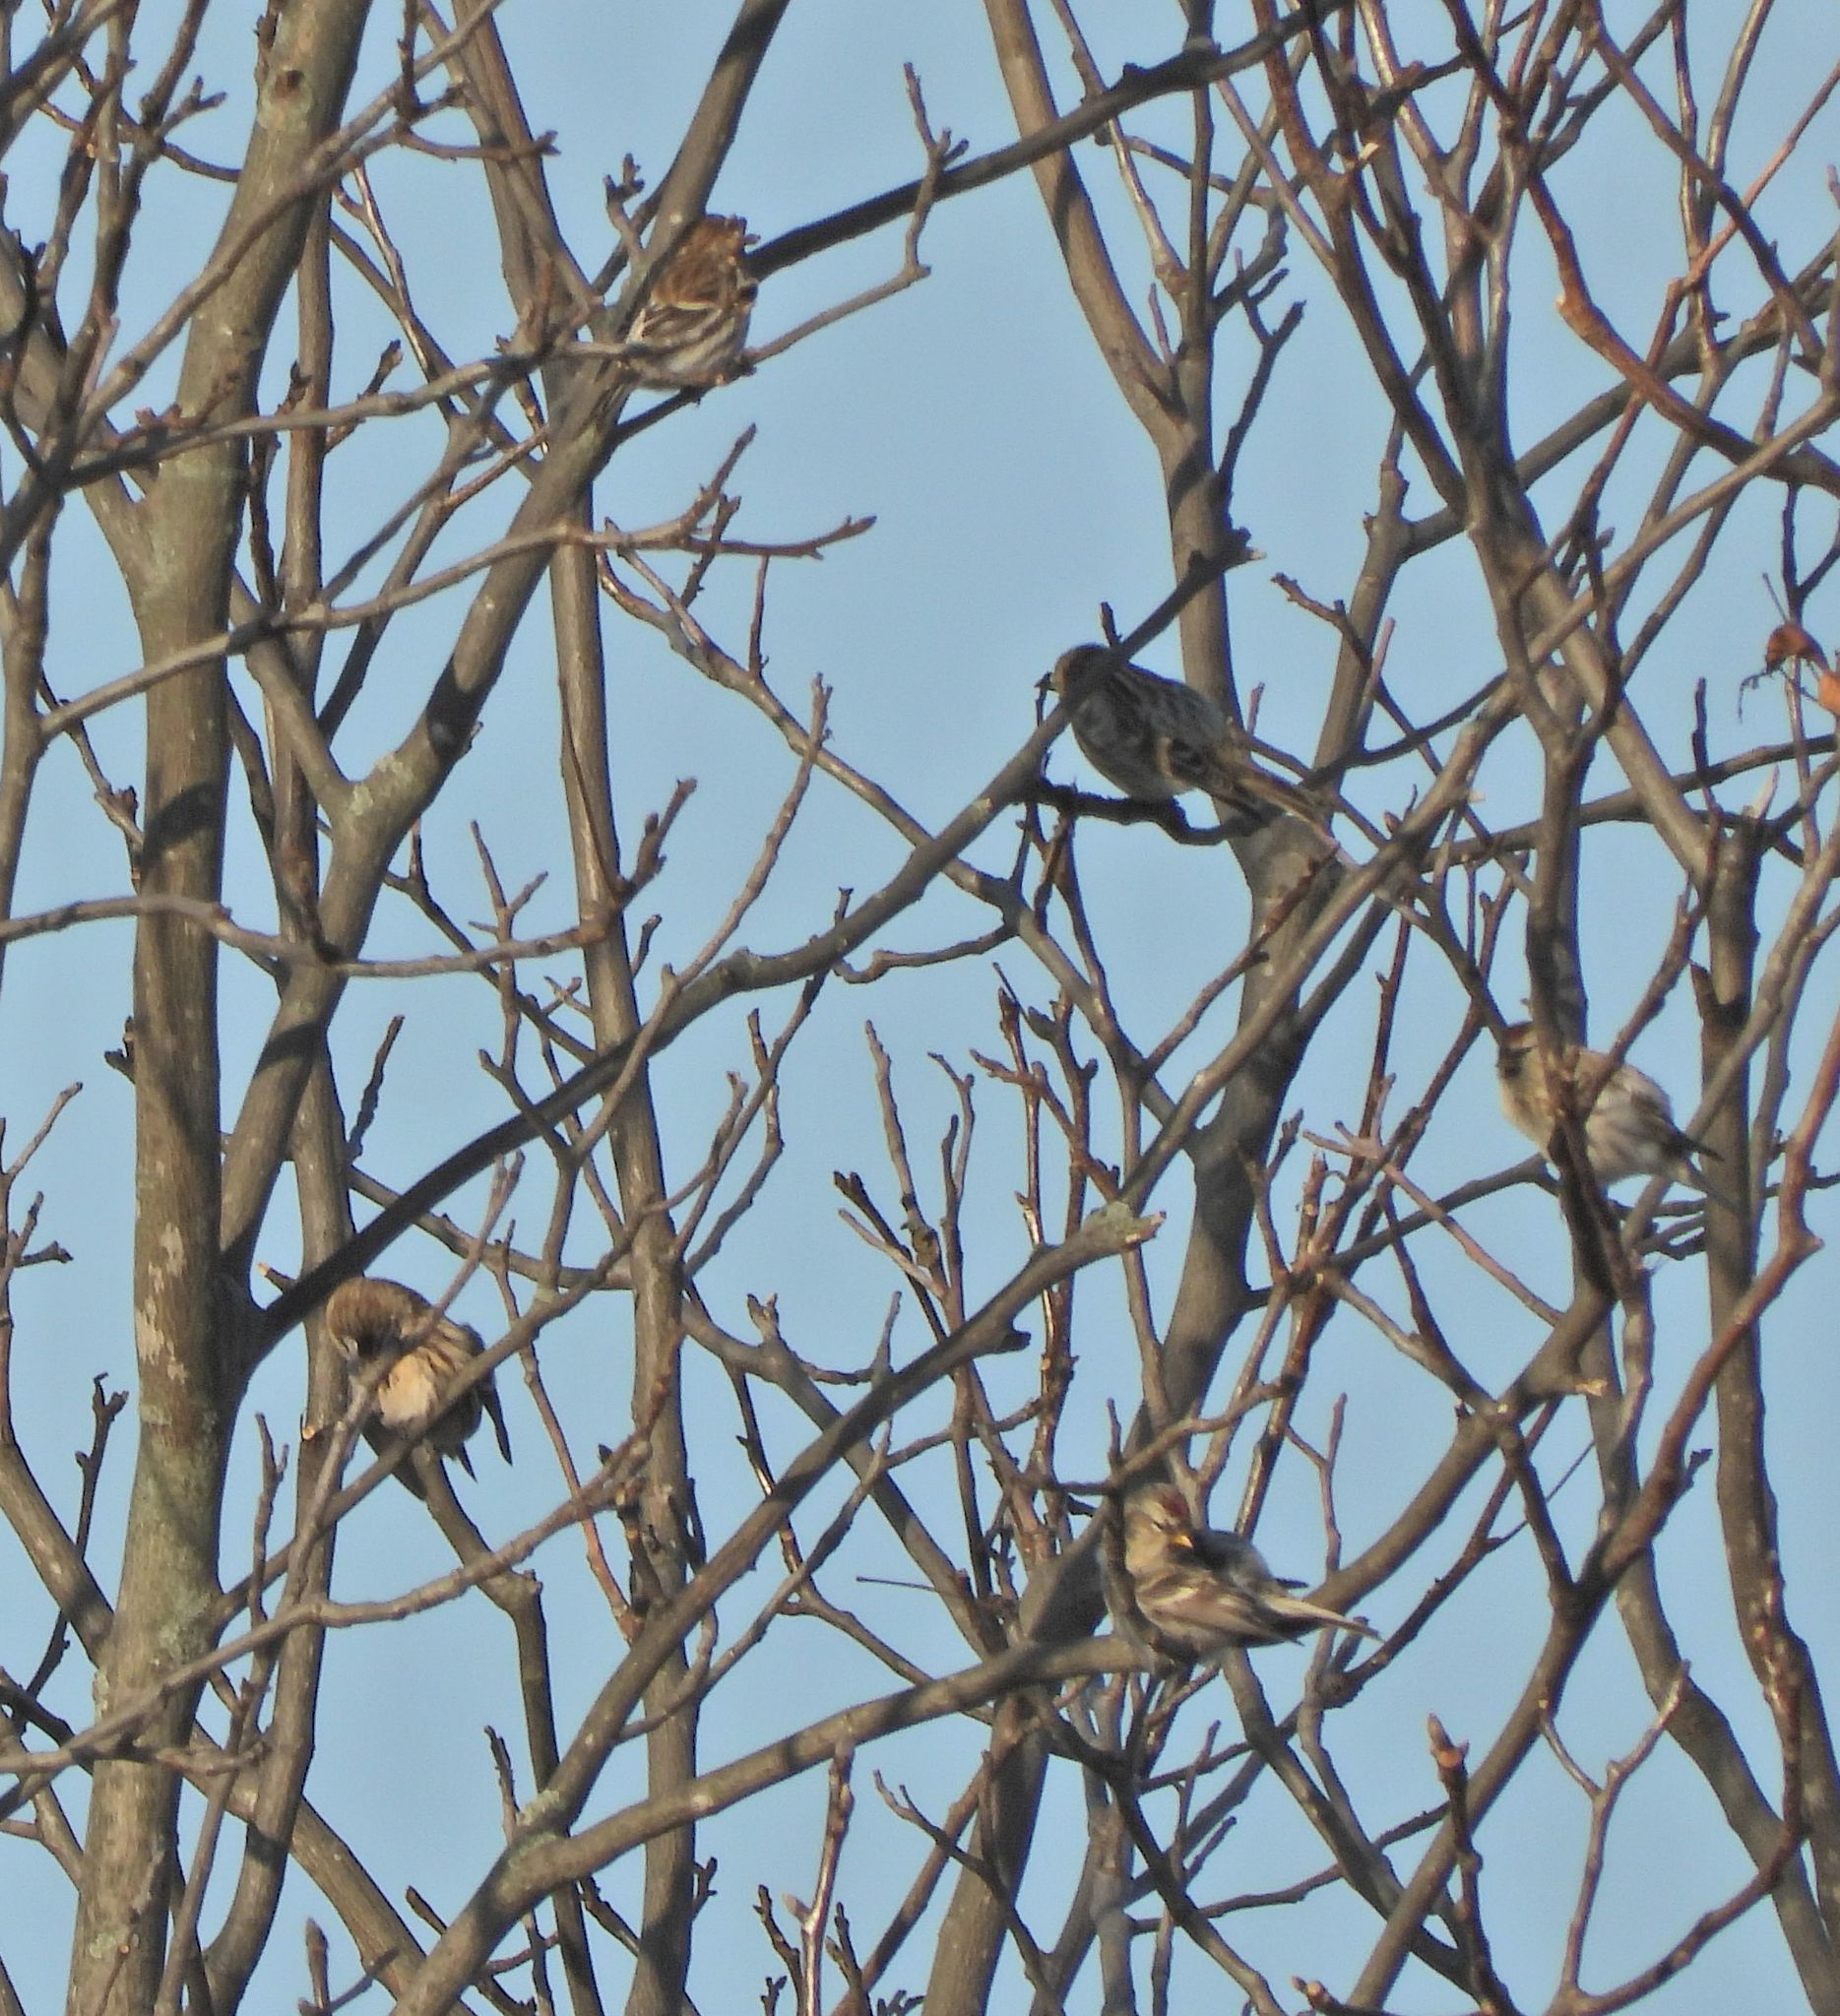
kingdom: Animalia
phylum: Chordata
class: Aves
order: Passeriformes
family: Fringillidae
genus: Acanthis
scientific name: Acanthis flammea
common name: Common redpoll
